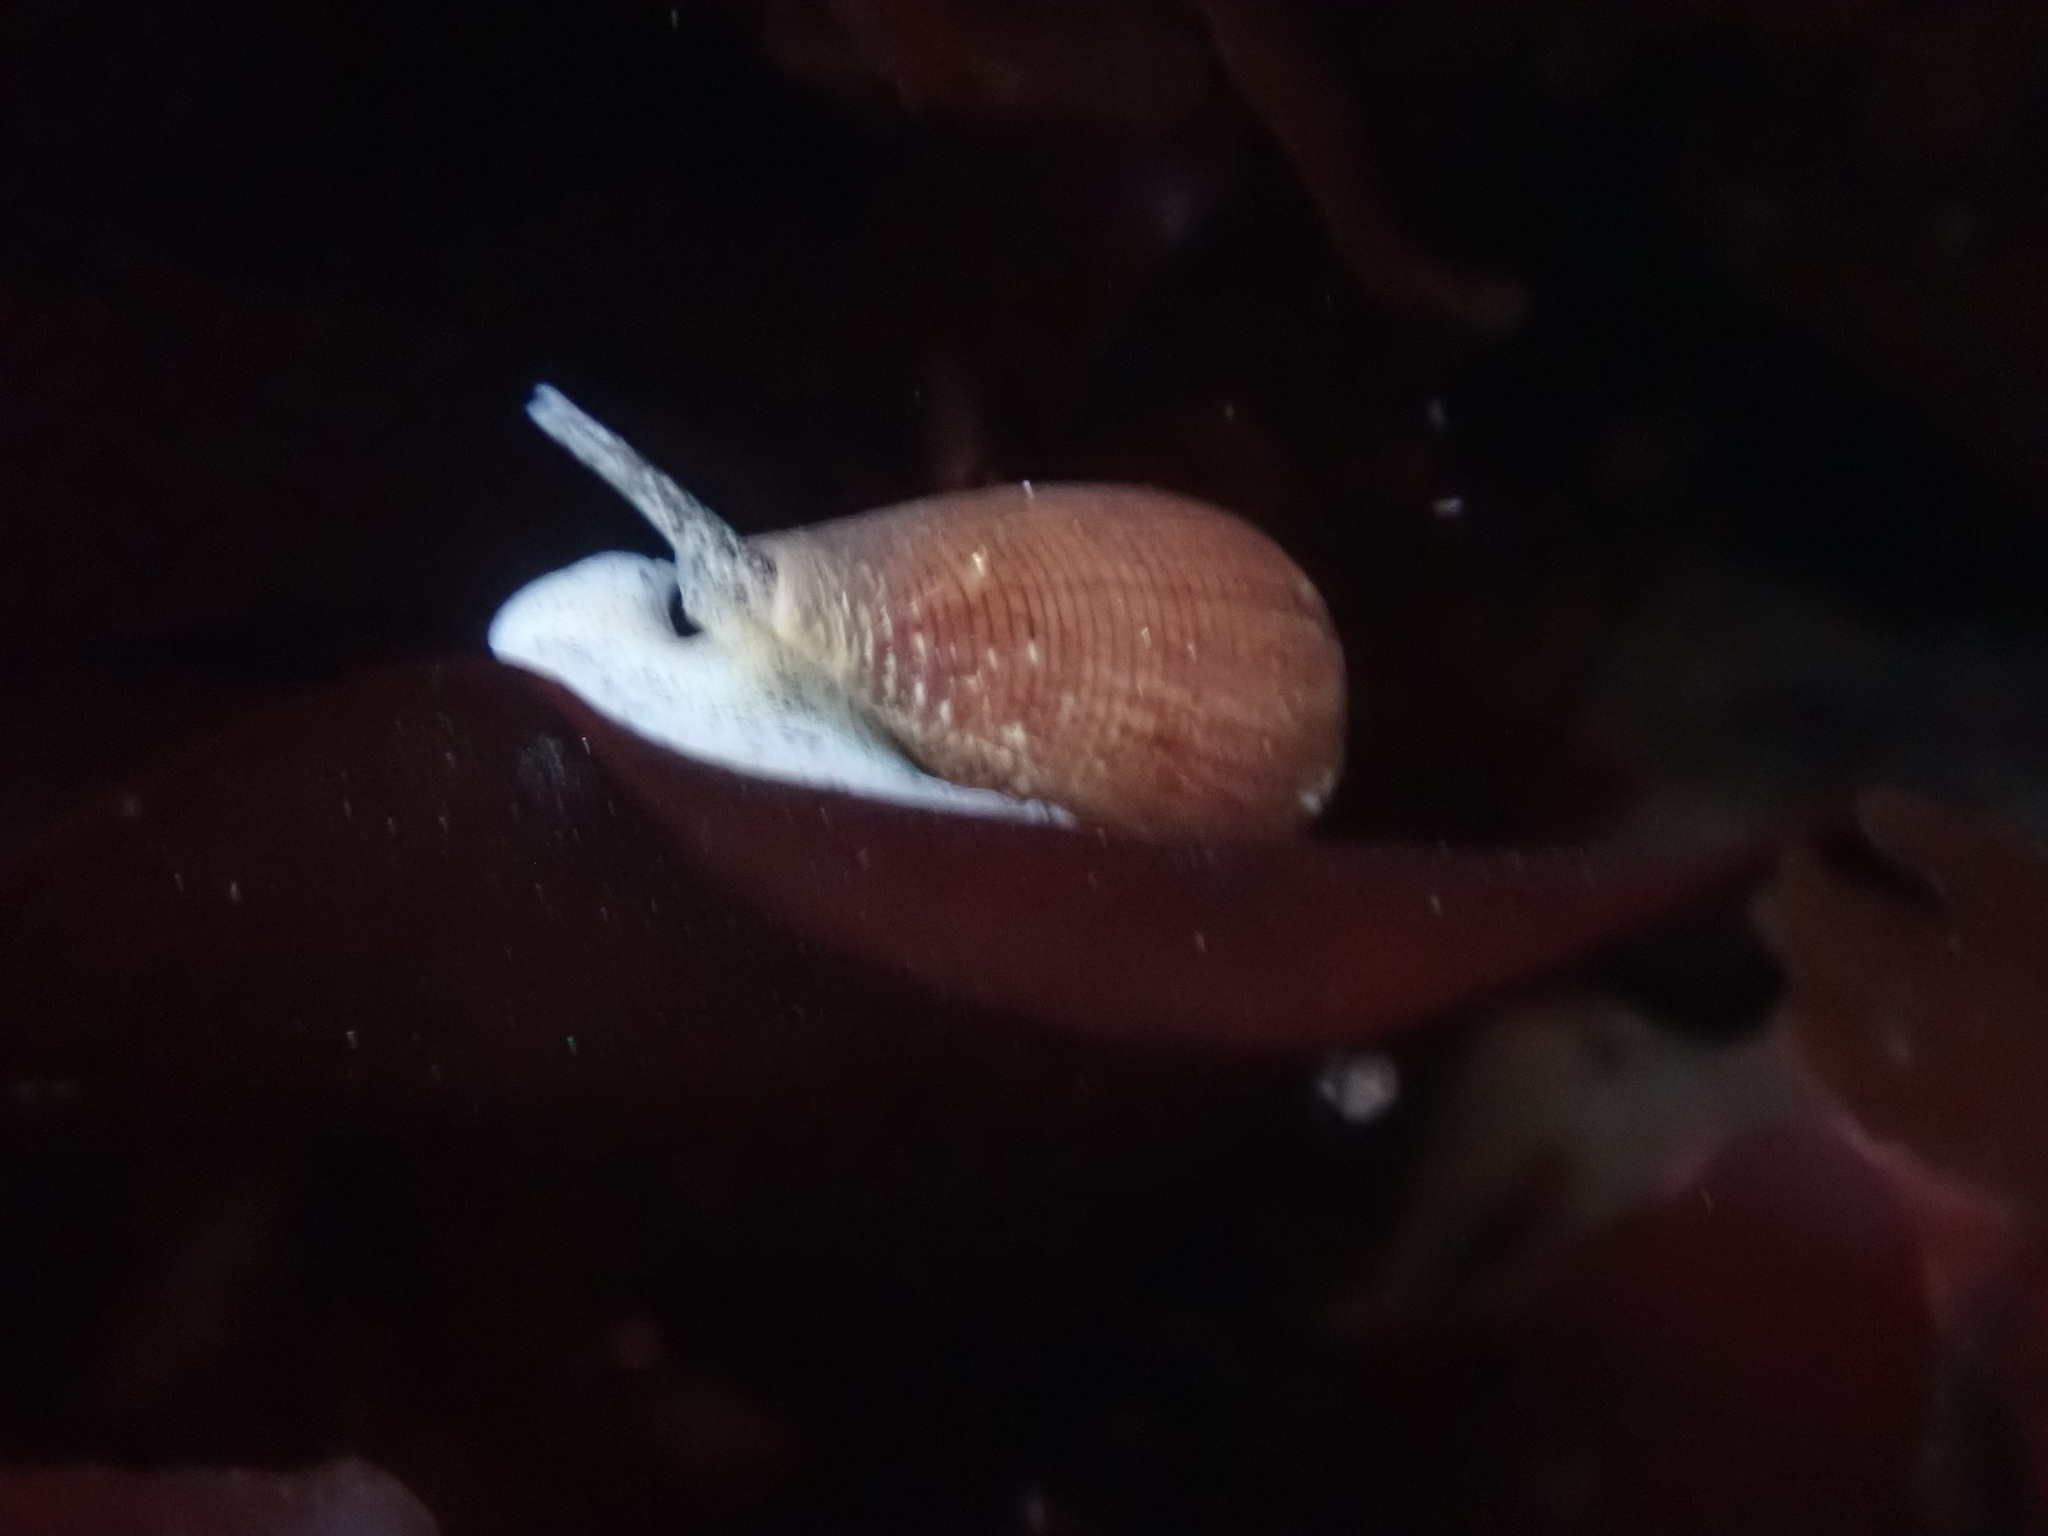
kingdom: Animalia
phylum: Mollusca
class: Gastropoda
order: Neogastropoda
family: Conidae
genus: Californiconus
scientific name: Californiconus californicus
